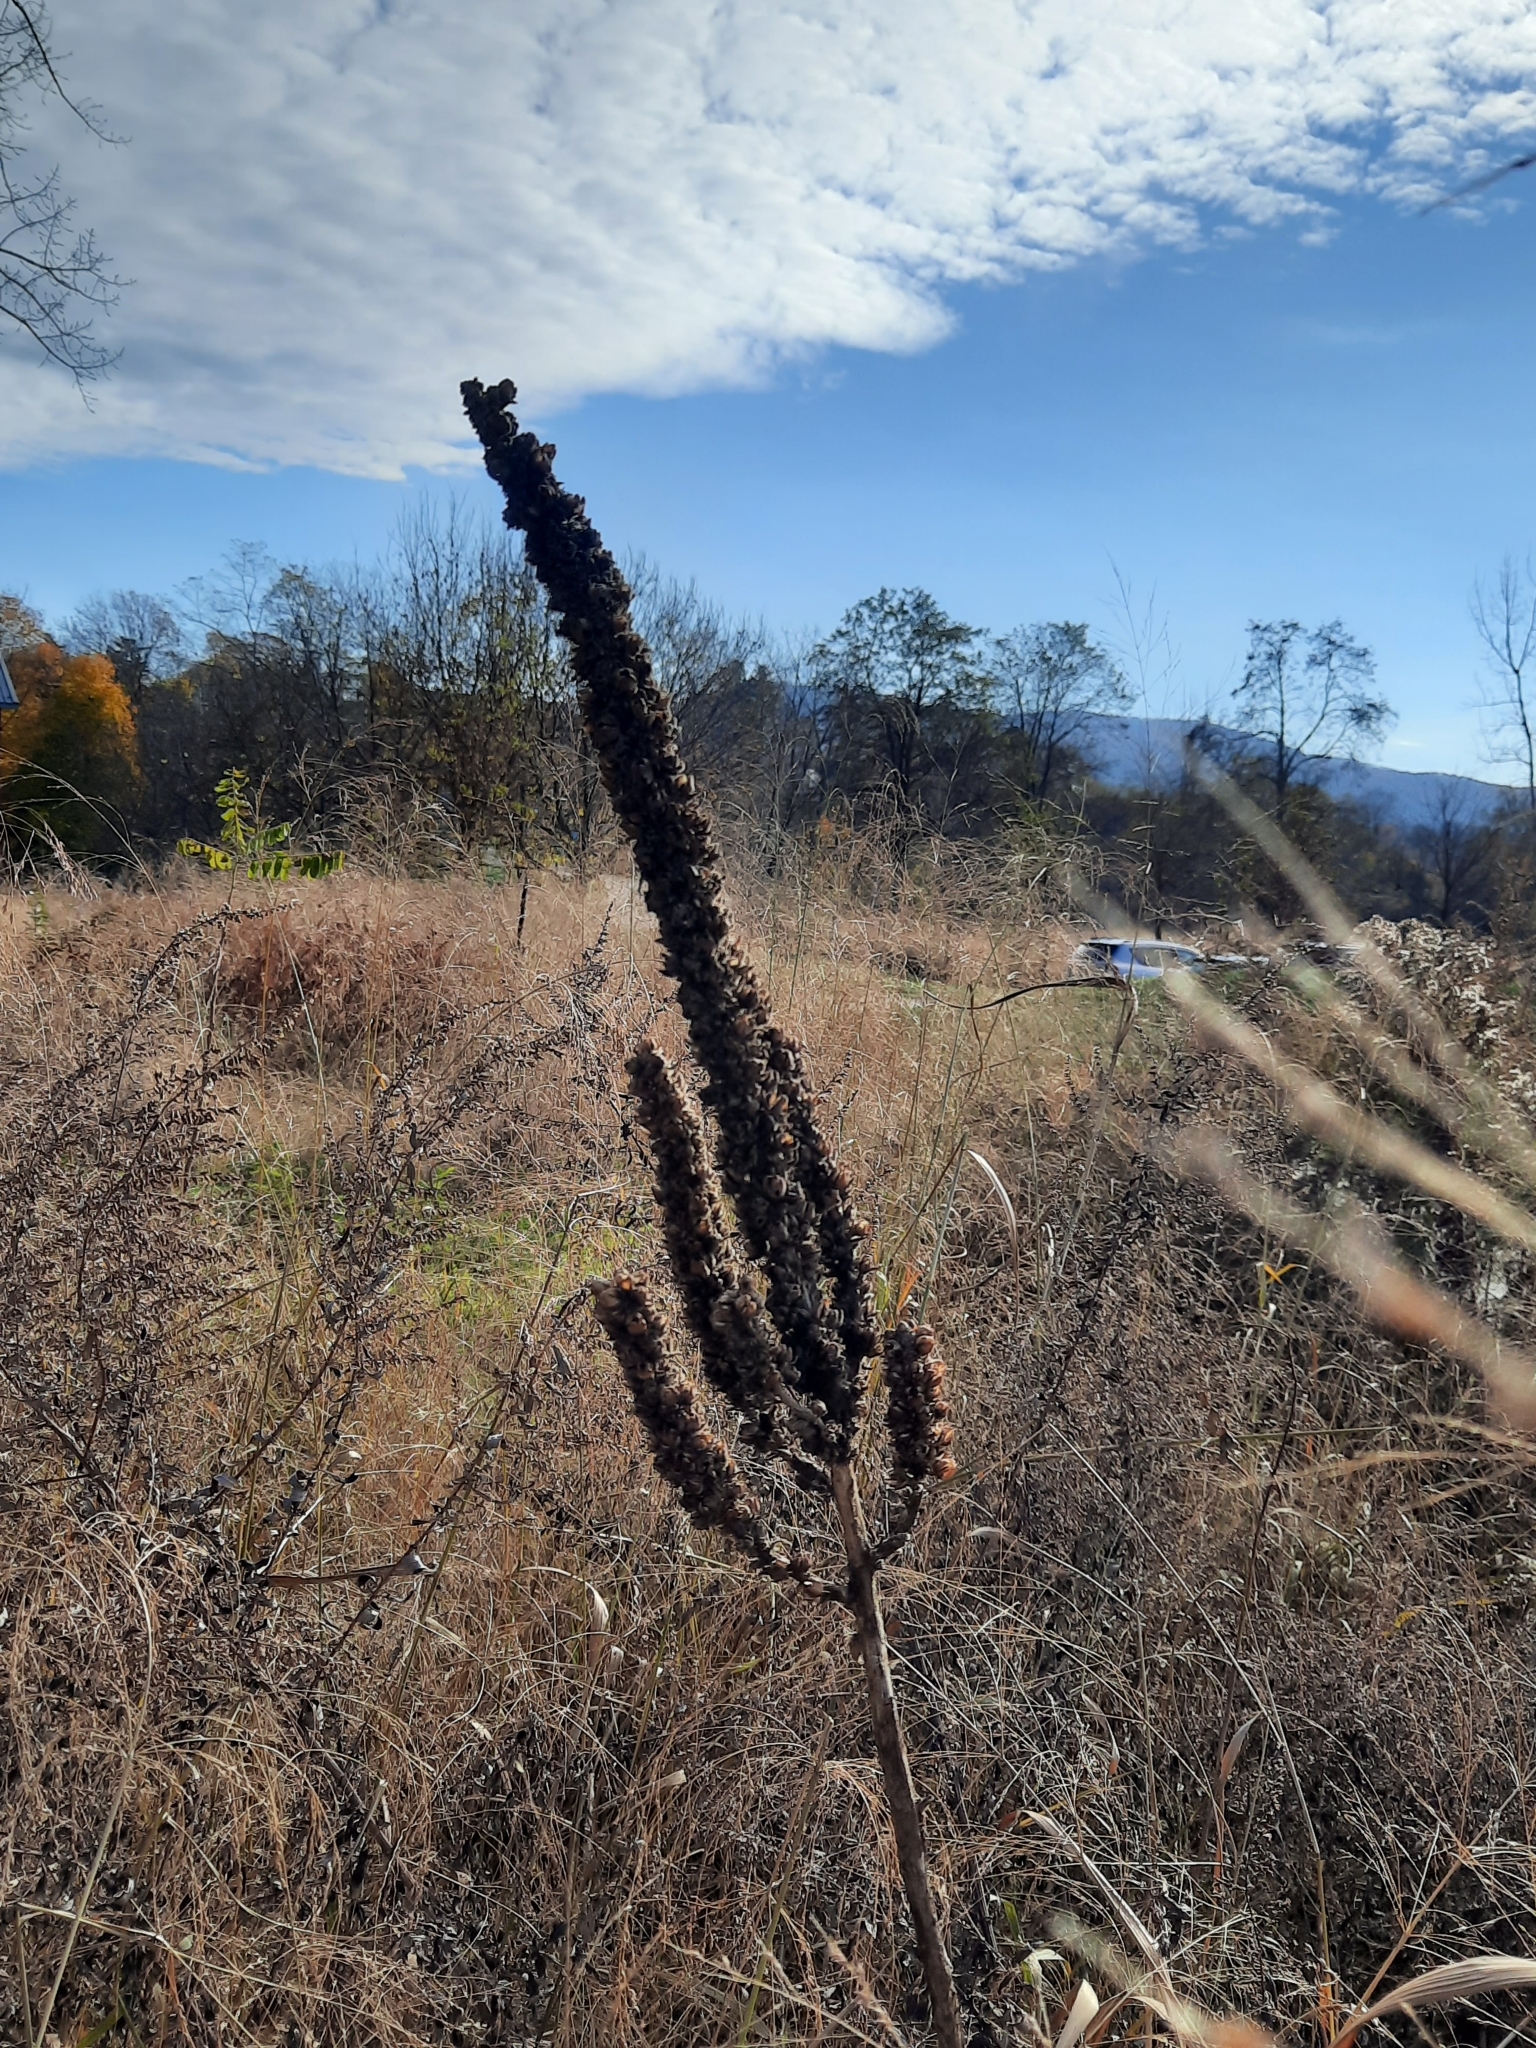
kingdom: Plantae
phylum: Tracheophyta
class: Magnoliopsida
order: Lamiales
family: Scrophulariaceae
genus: Verbascum
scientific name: Verbascum thapsus
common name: Common mullein
